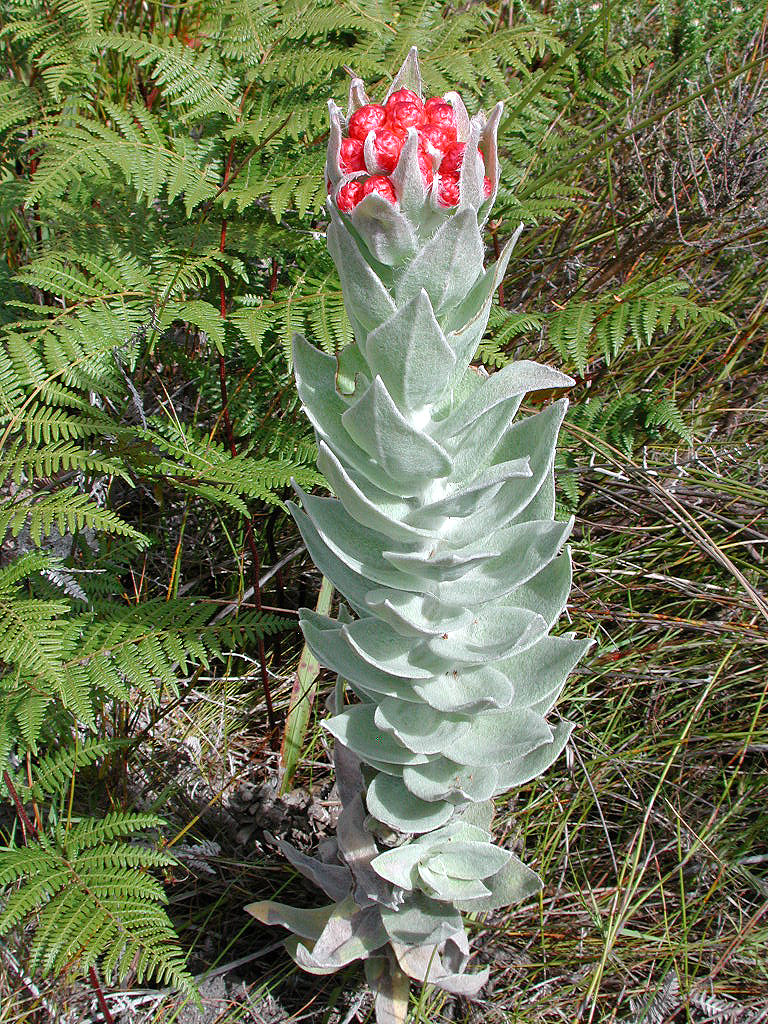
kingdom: Plantae
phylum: Tracheophyta
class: Magnoliopsida
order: Asterales
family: Asteraceae
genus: Syncarpha
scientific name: Syncarpha eximia
